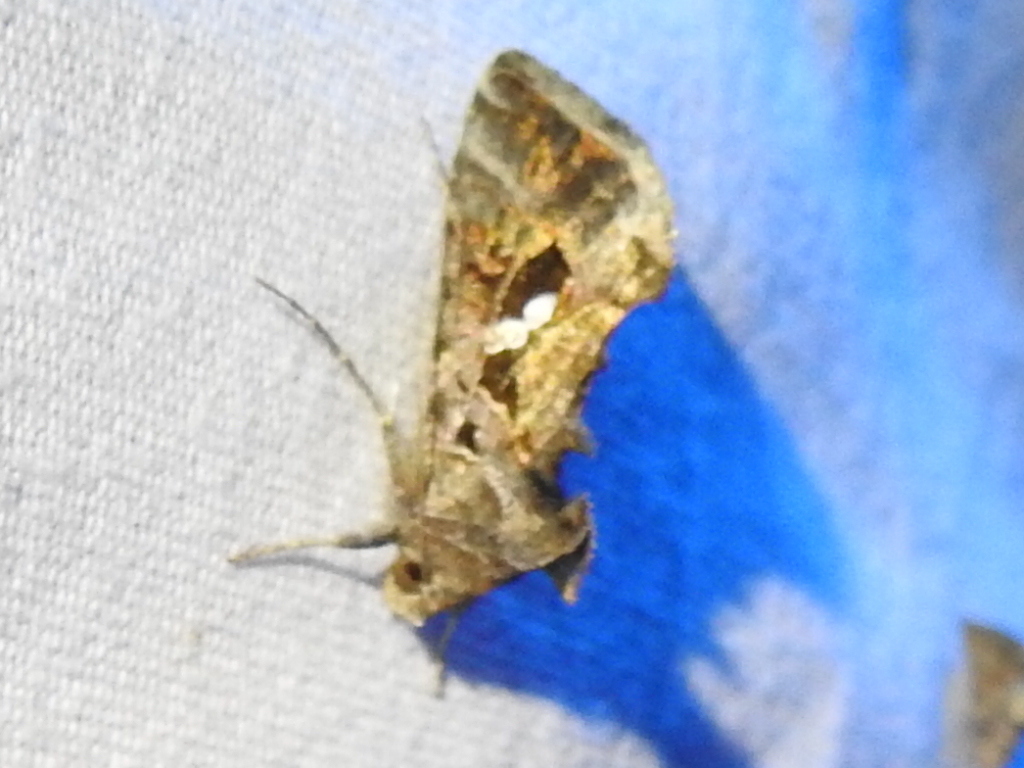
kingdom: Animalia
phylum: Arthropoda
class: Insecta
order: Lepidoptera
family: Noctuidae
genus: Chrysodeixis
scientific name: Chrysodeixis includens
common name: Cutworm moth
